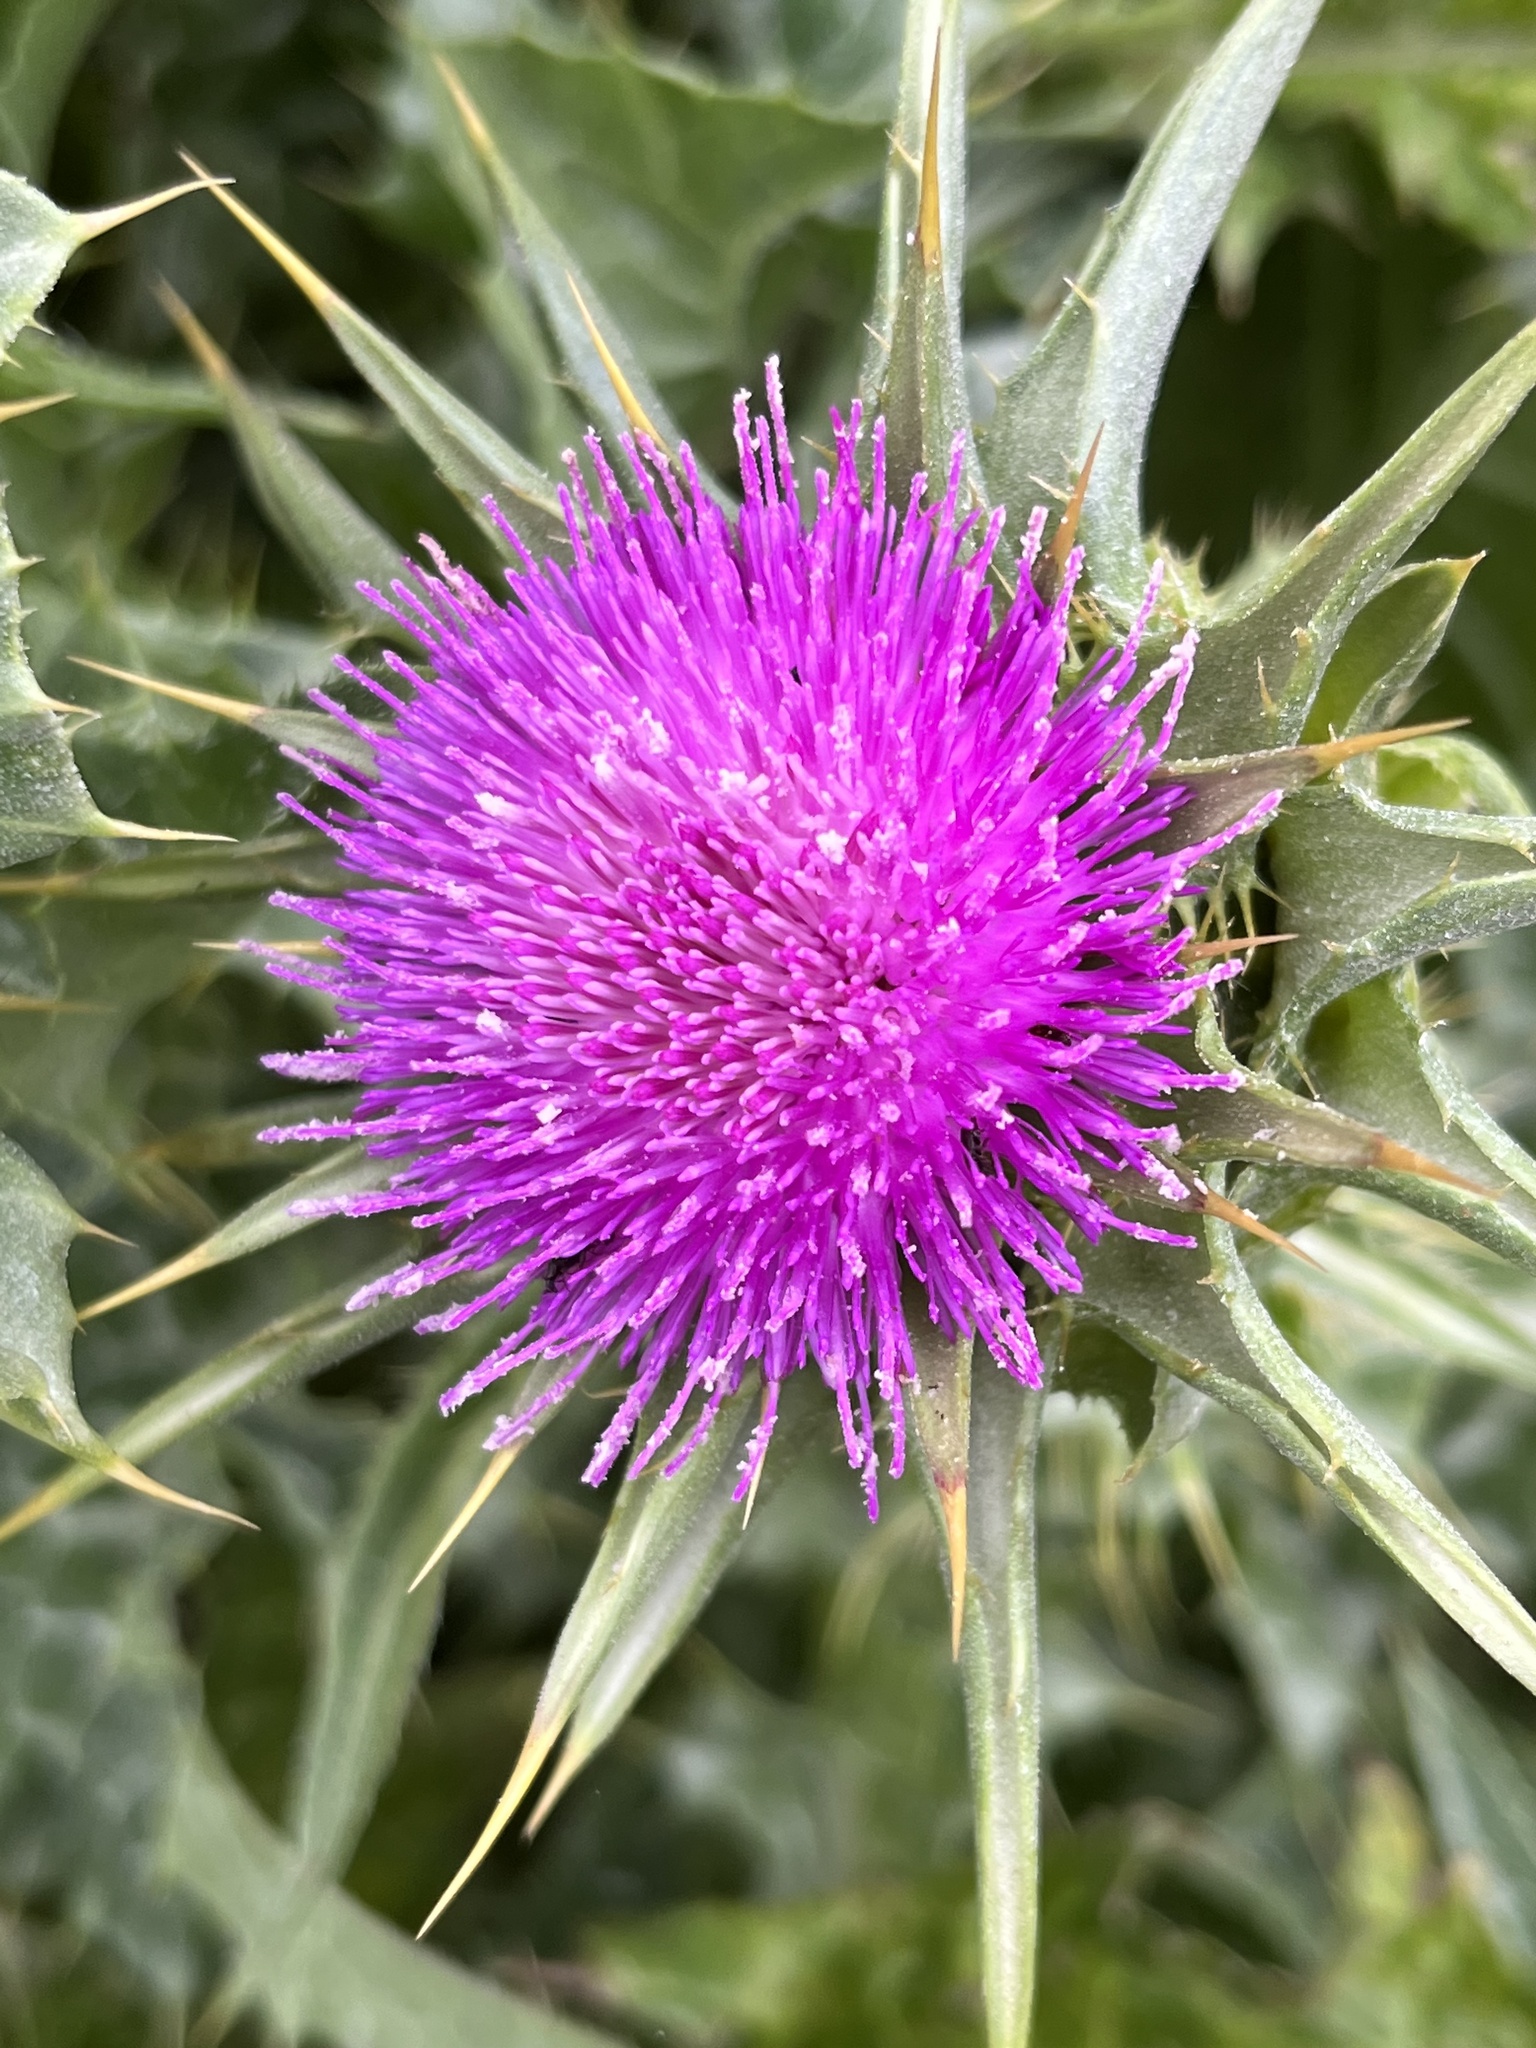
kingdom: Plantae
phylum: Tracheophyta
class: Magnoliopsida
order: Asterales
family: Asteraceae
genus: Silybum
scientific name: Silybum marianum
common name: Milk thistle
